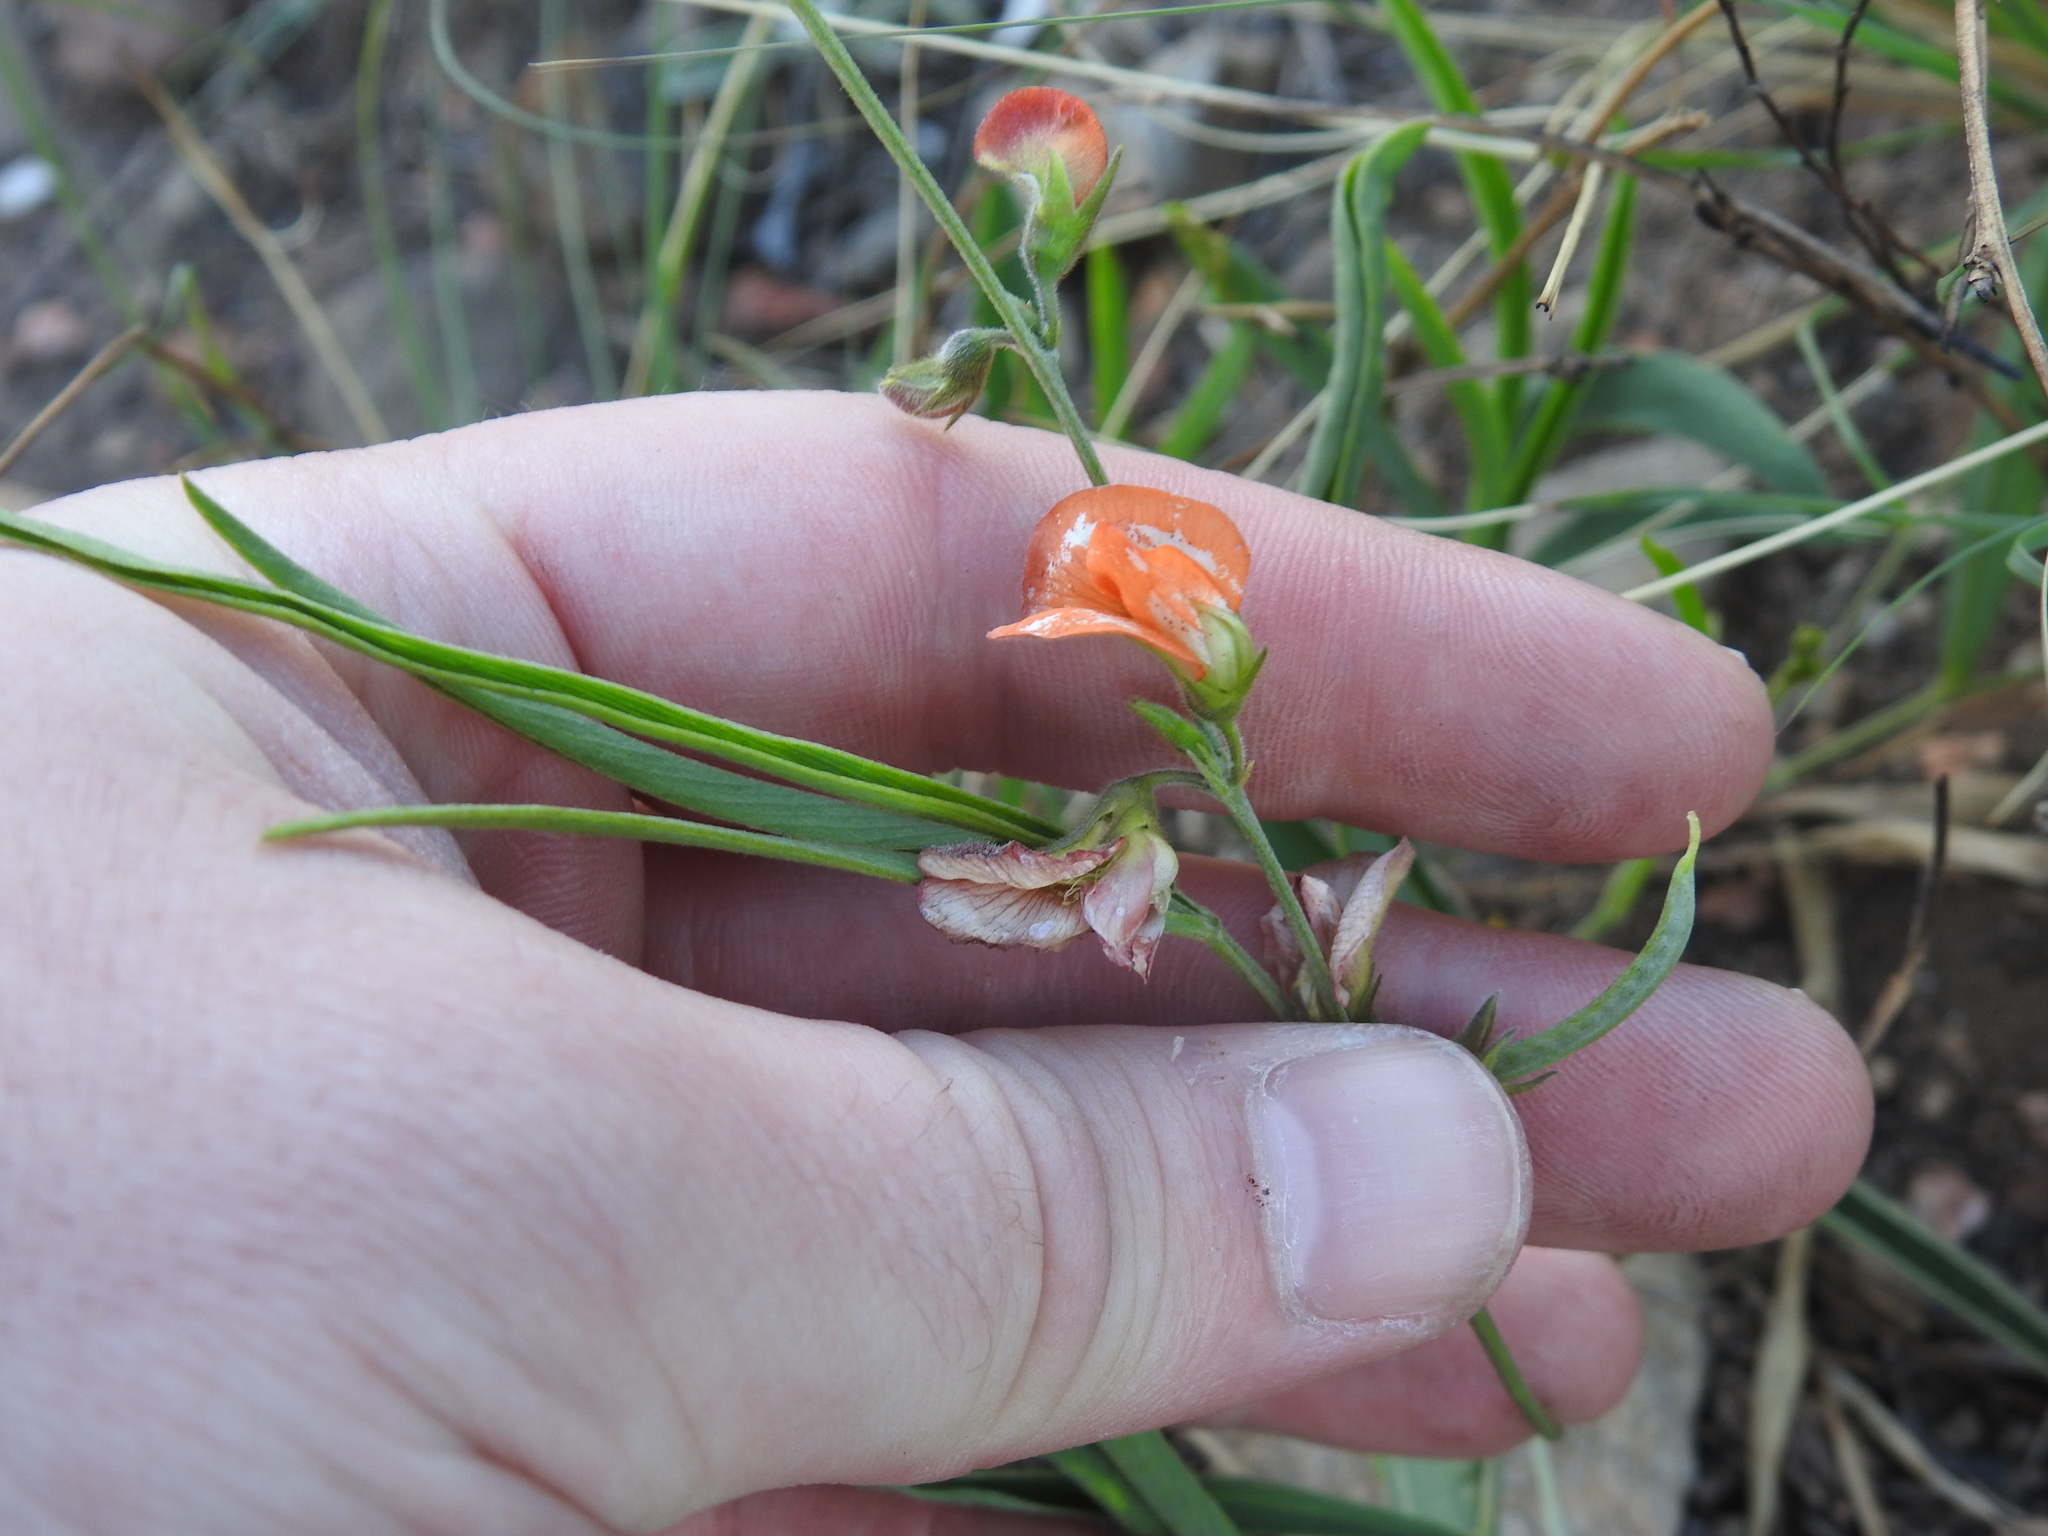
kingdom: Plantae
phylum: Tracheophyta
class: Magnoliopsida
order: Fabales
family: Fabaceae
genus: Tephrosia
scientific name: Tephrosia elongata
